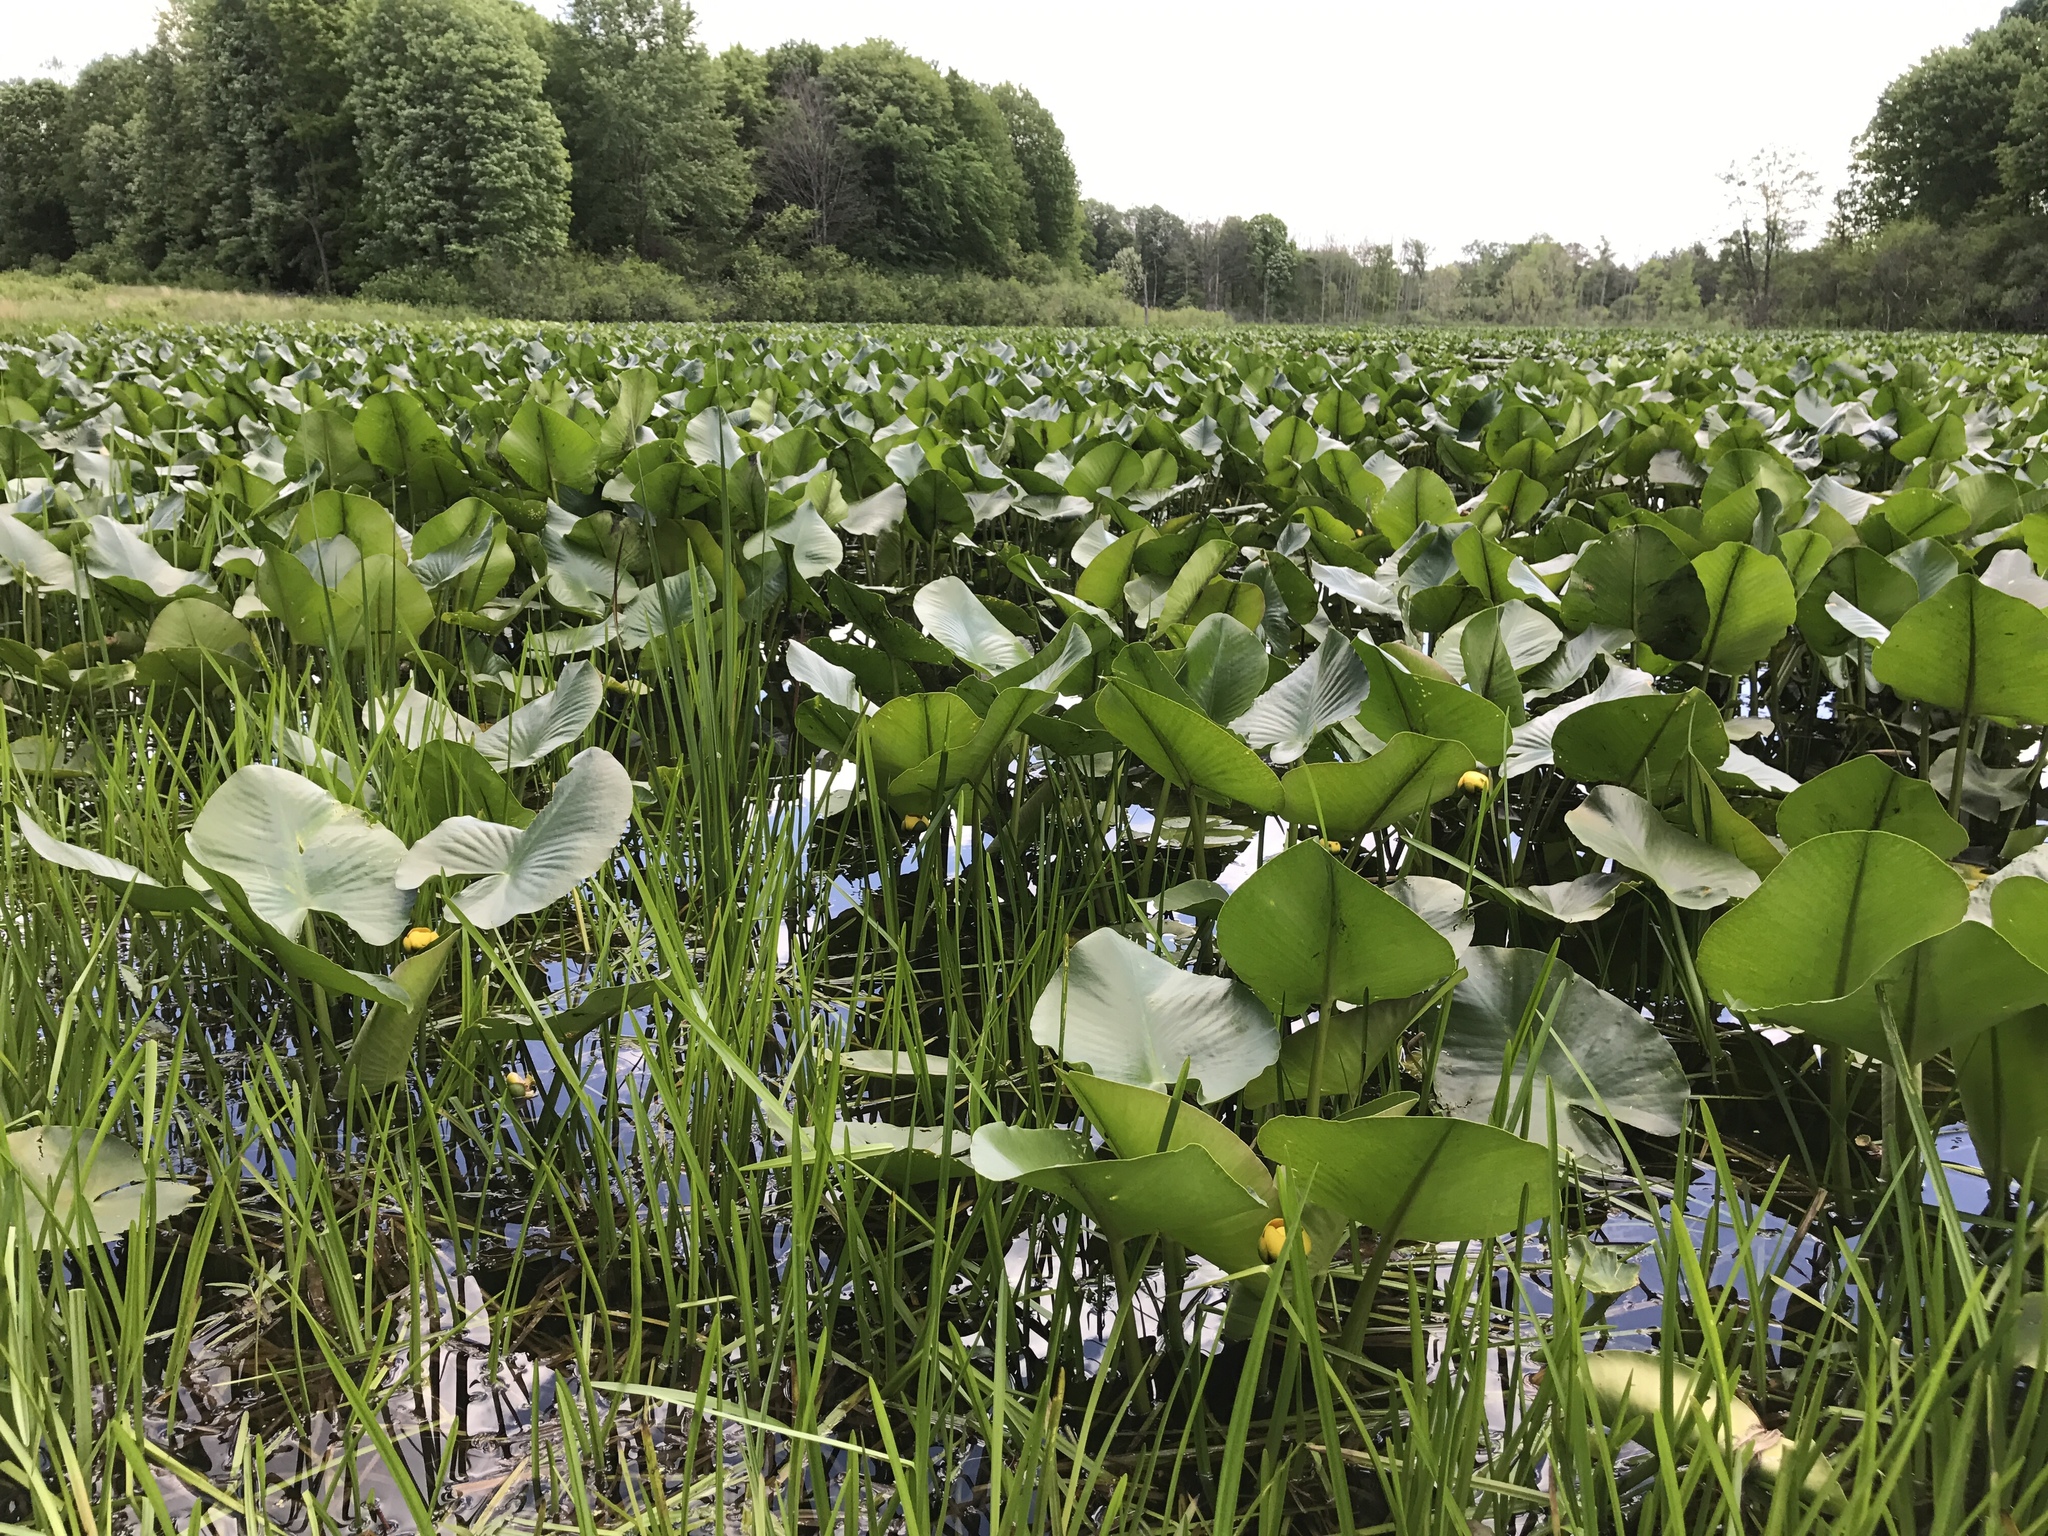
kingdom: Plantae
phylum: Tracheophyta
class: Magnoliopsida
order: Nymphaeales
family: Nymphaeaceae
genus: Nuphar
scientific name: Nuphar advena
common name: Spatter-dock
